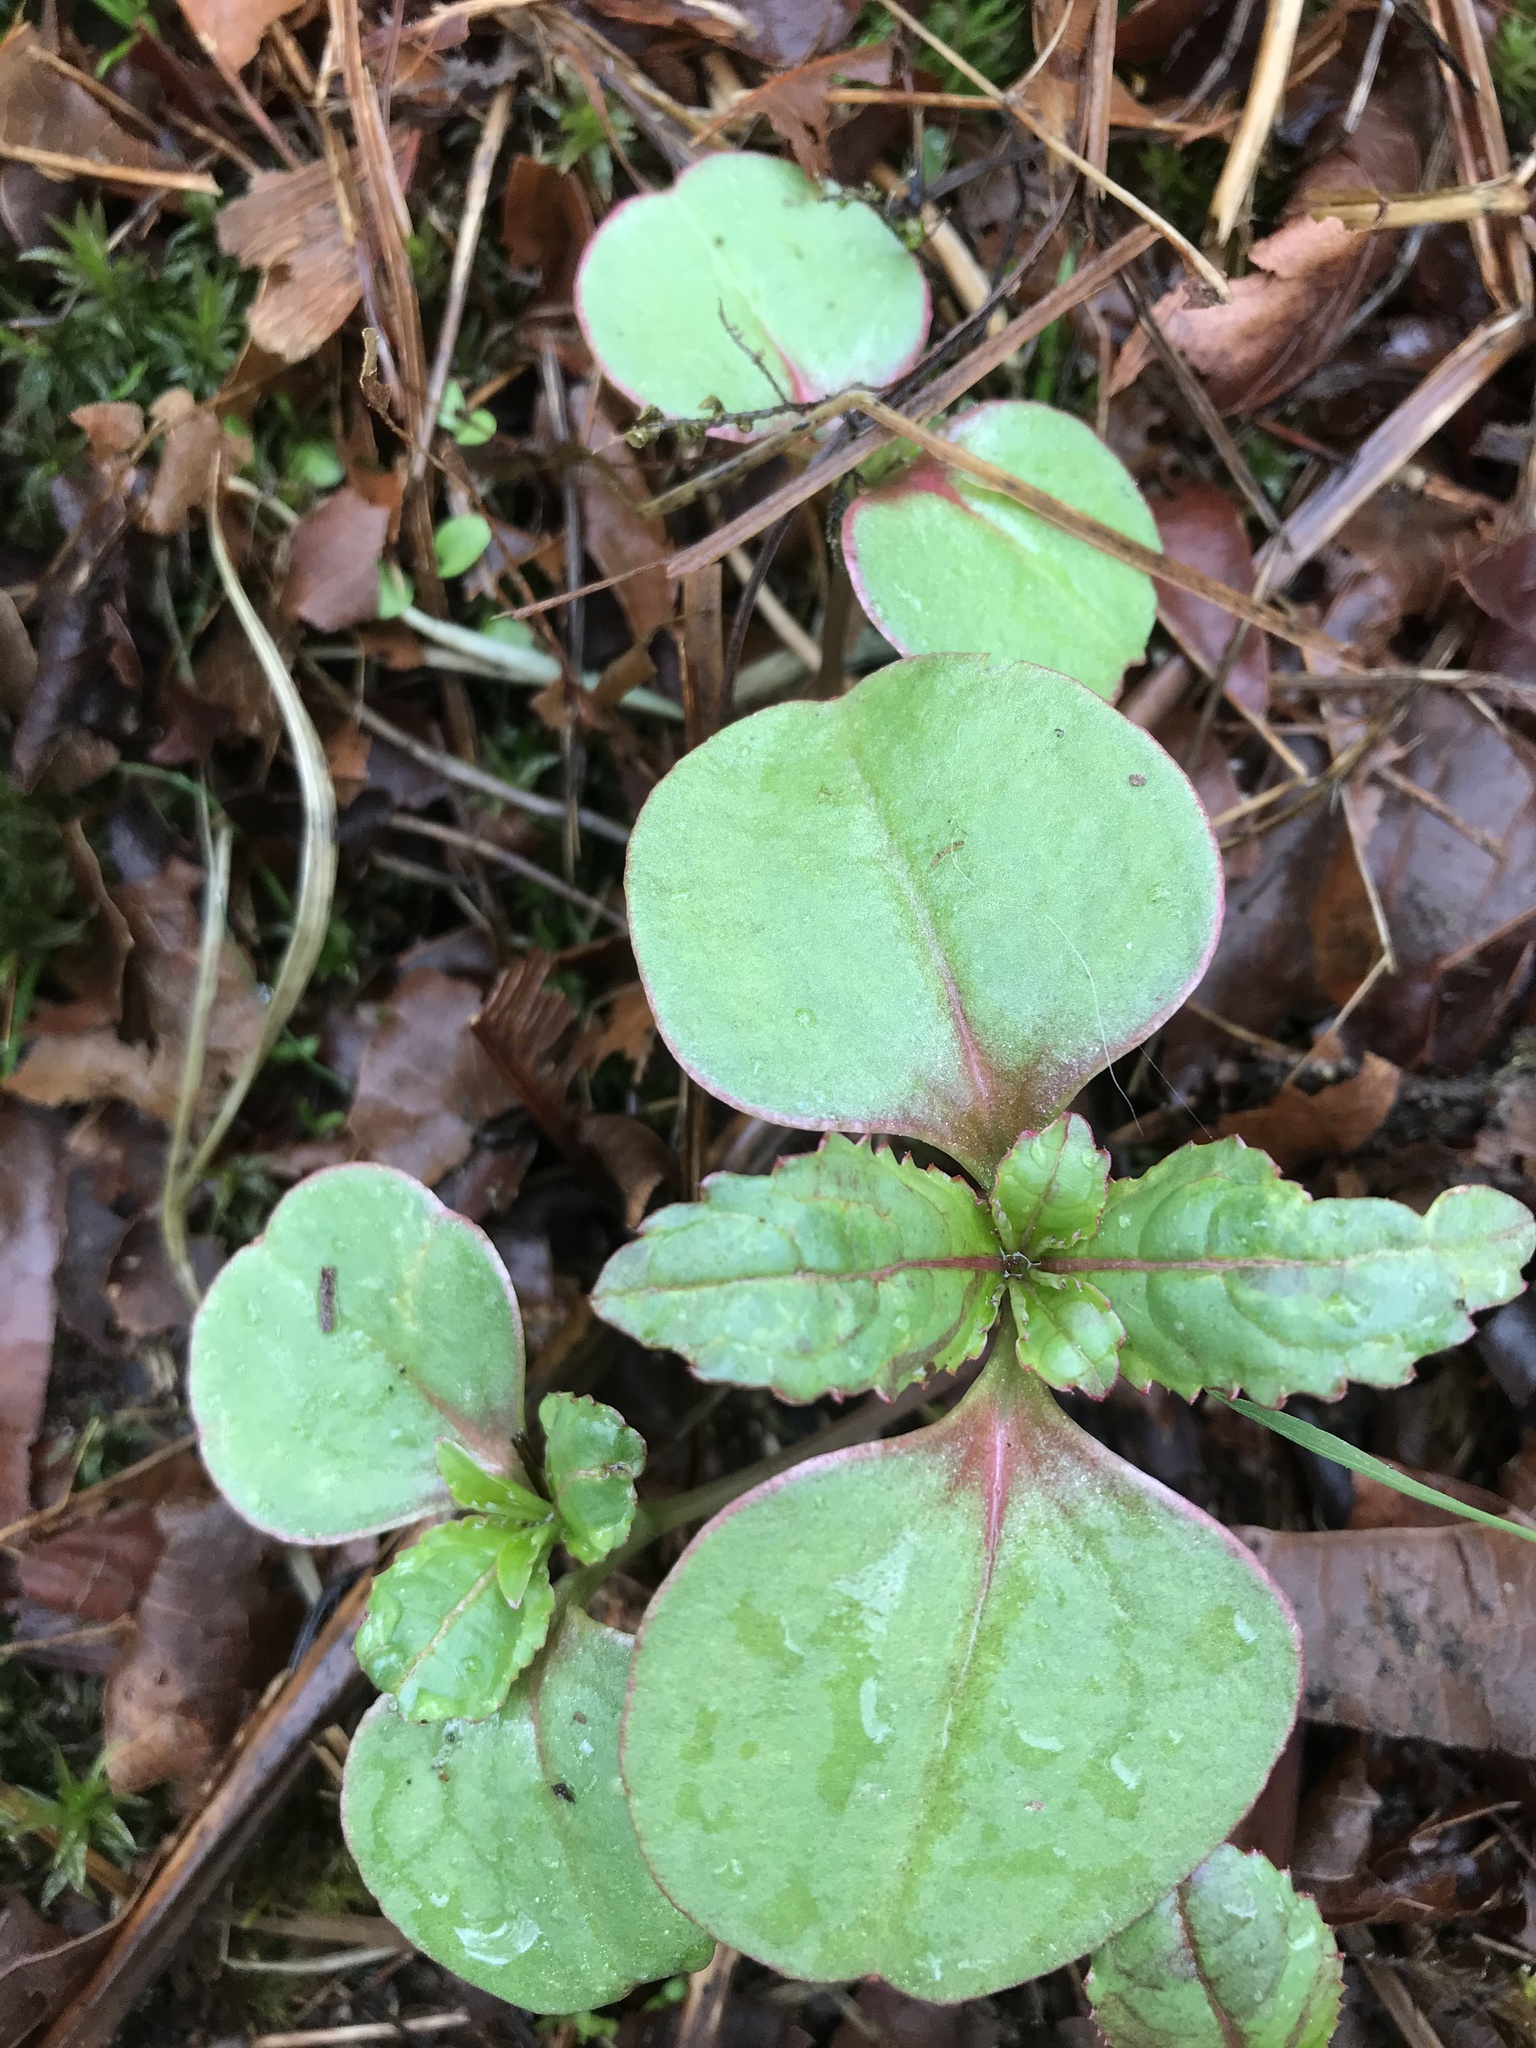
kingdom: Plantae
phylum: Tracheophyta
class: Magnoliopsida
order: Ericales
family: Balsaminaceae
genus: Impatiens
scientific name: Impatiens glandulifera
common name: Himalayan balsam
